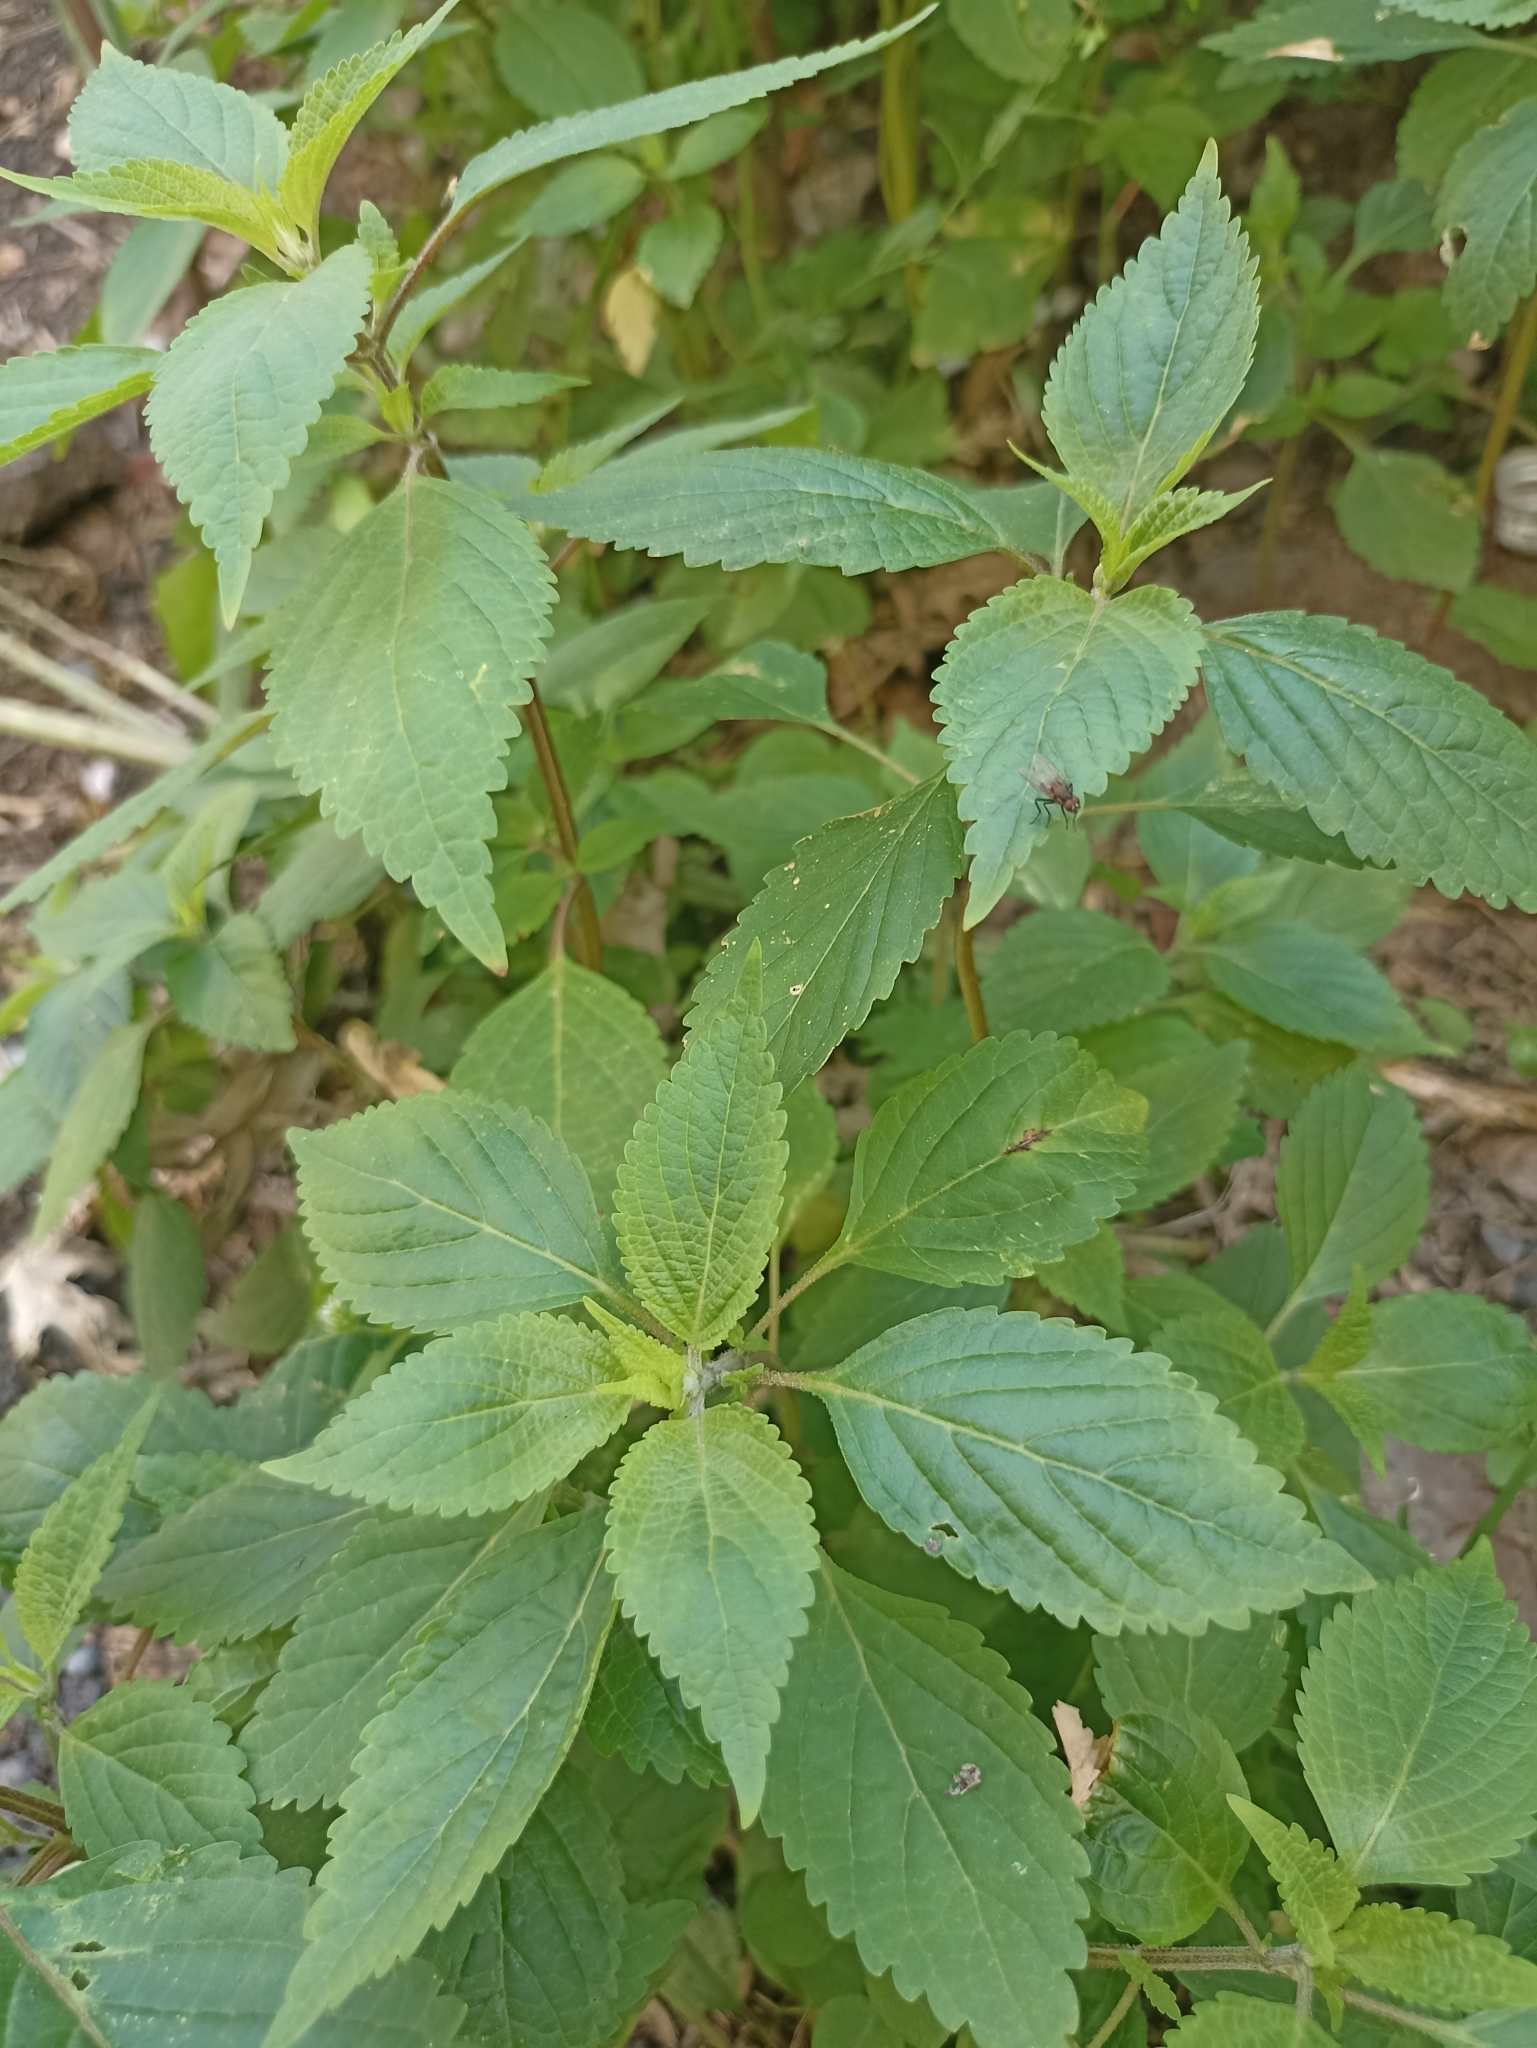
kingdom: Plantae
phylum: Tracheophyta
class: Magnoliopsida
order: Lamiales
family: Lamiaceae
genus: Elsholtzia
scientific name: Elsholtzia ciliata
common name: Ciliate elsholtzia
